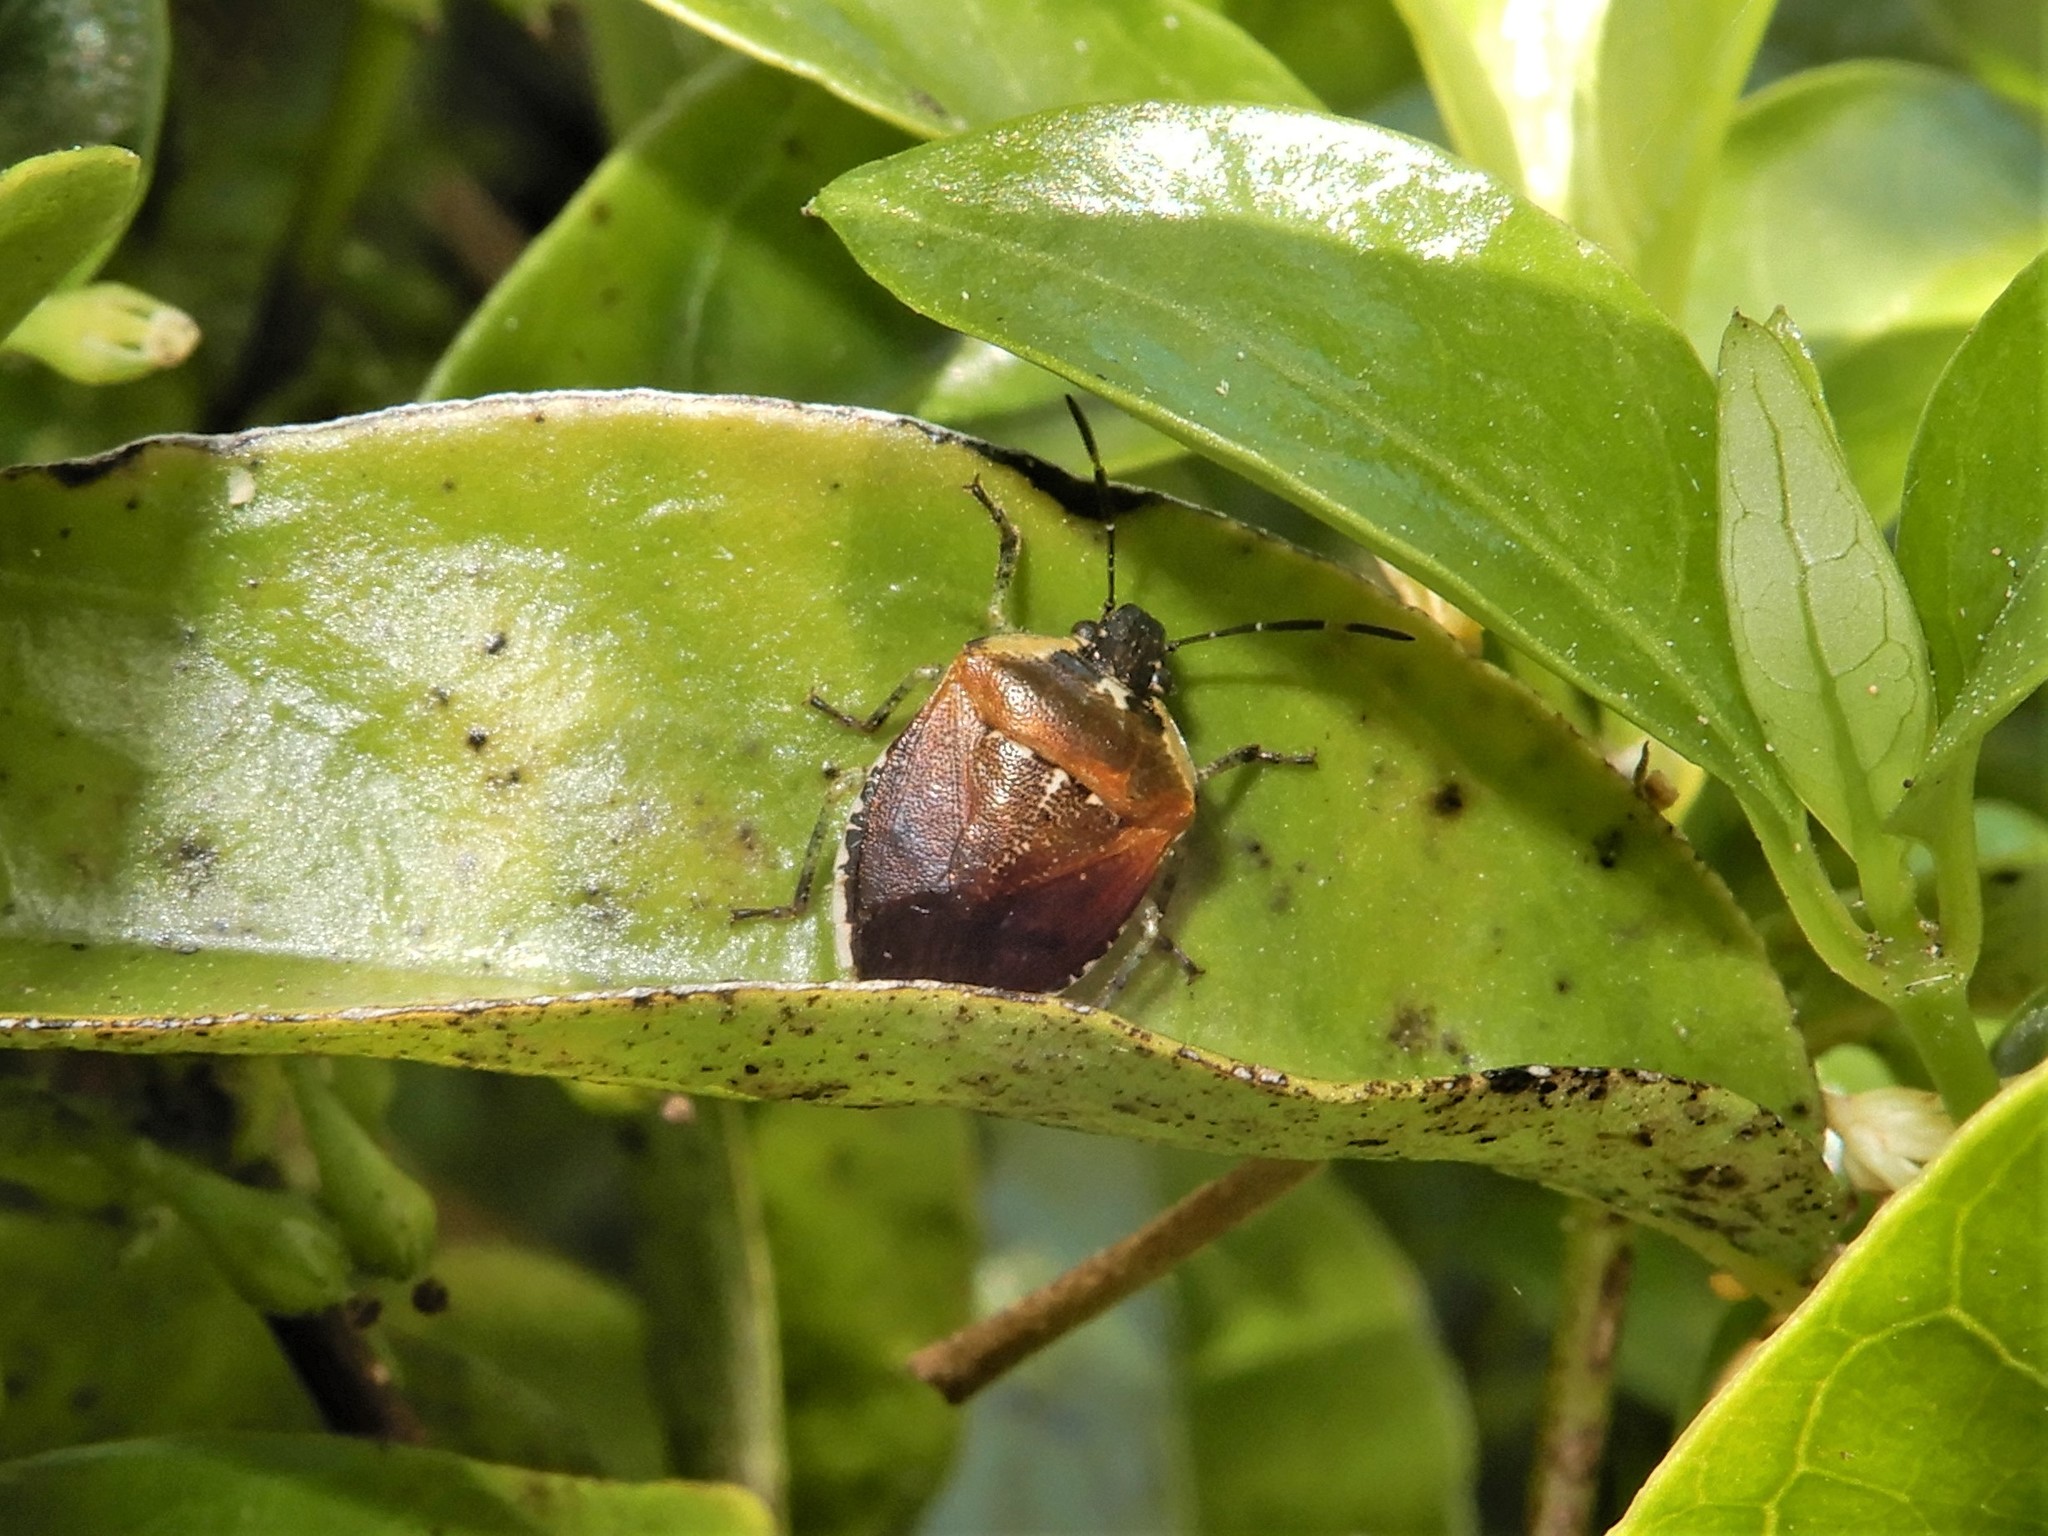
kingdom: Animalia
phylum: Arthropoda
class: Insecta
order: Hemiptera
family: Pentatomidae
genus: Monteithiella
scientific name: Monteithiella
